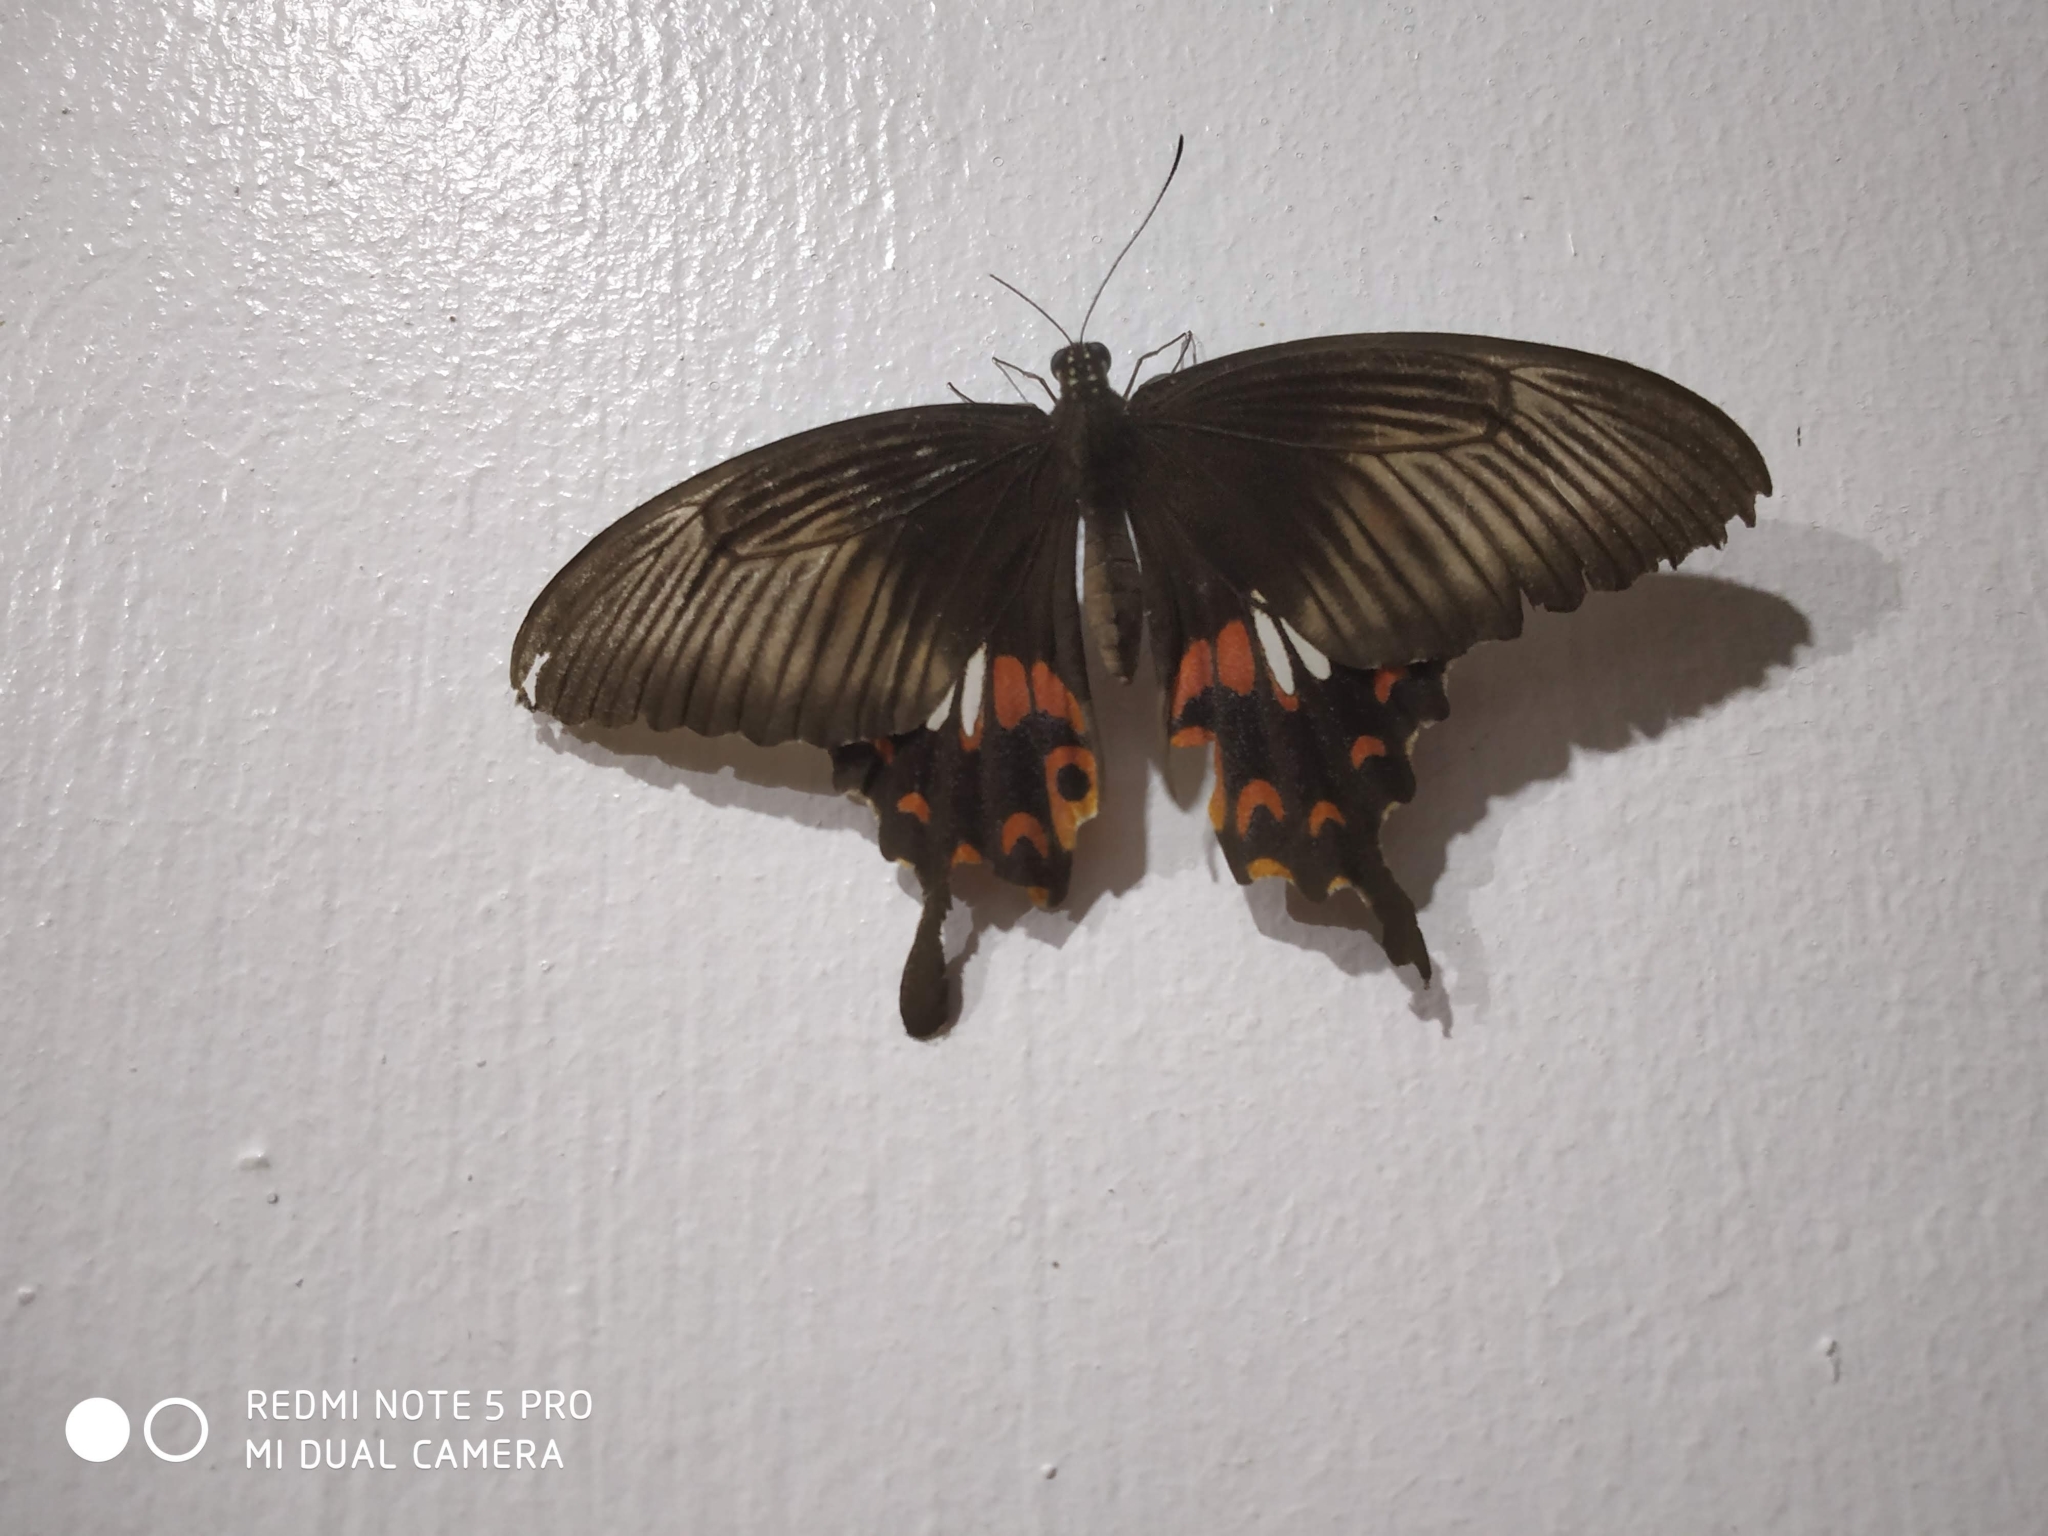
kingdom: Animalia
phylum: Arthropoda
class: Insecta
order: Lepidoptera
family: Papilionidae
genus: Papilio
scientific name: Papilio polytes
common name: Common mormon
